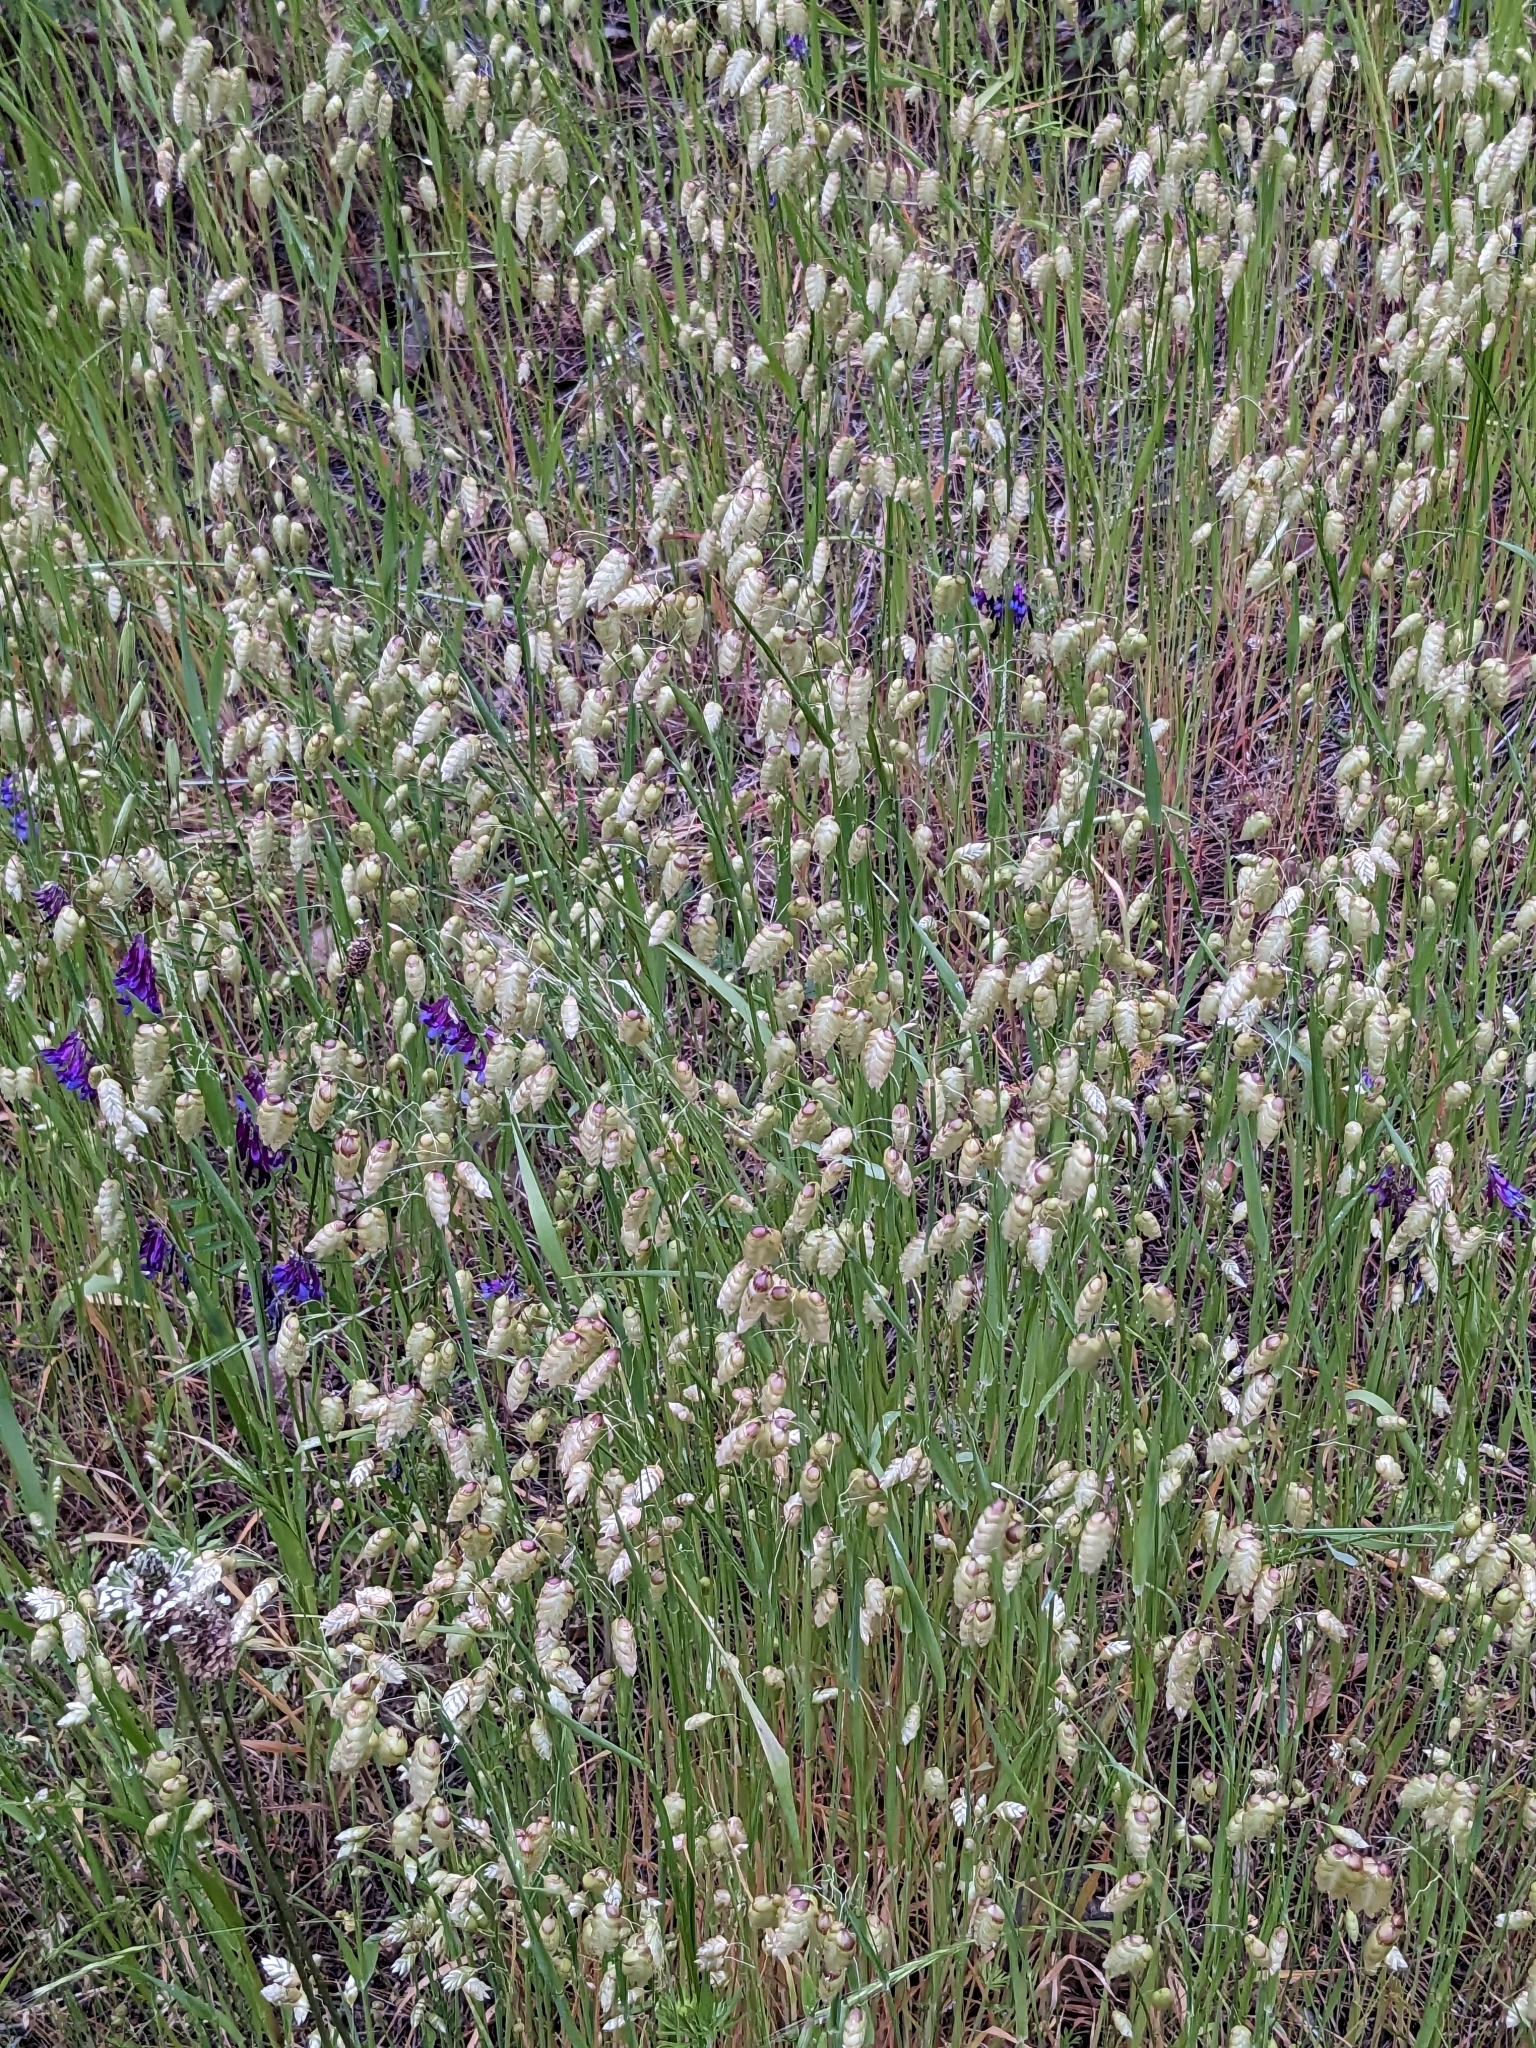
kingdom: Plantae
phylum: Tracheophyta
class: Liliopsida
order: Poales
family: Poaceae
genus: Briza
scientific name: Briza maxima
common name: Big quakinggrass
